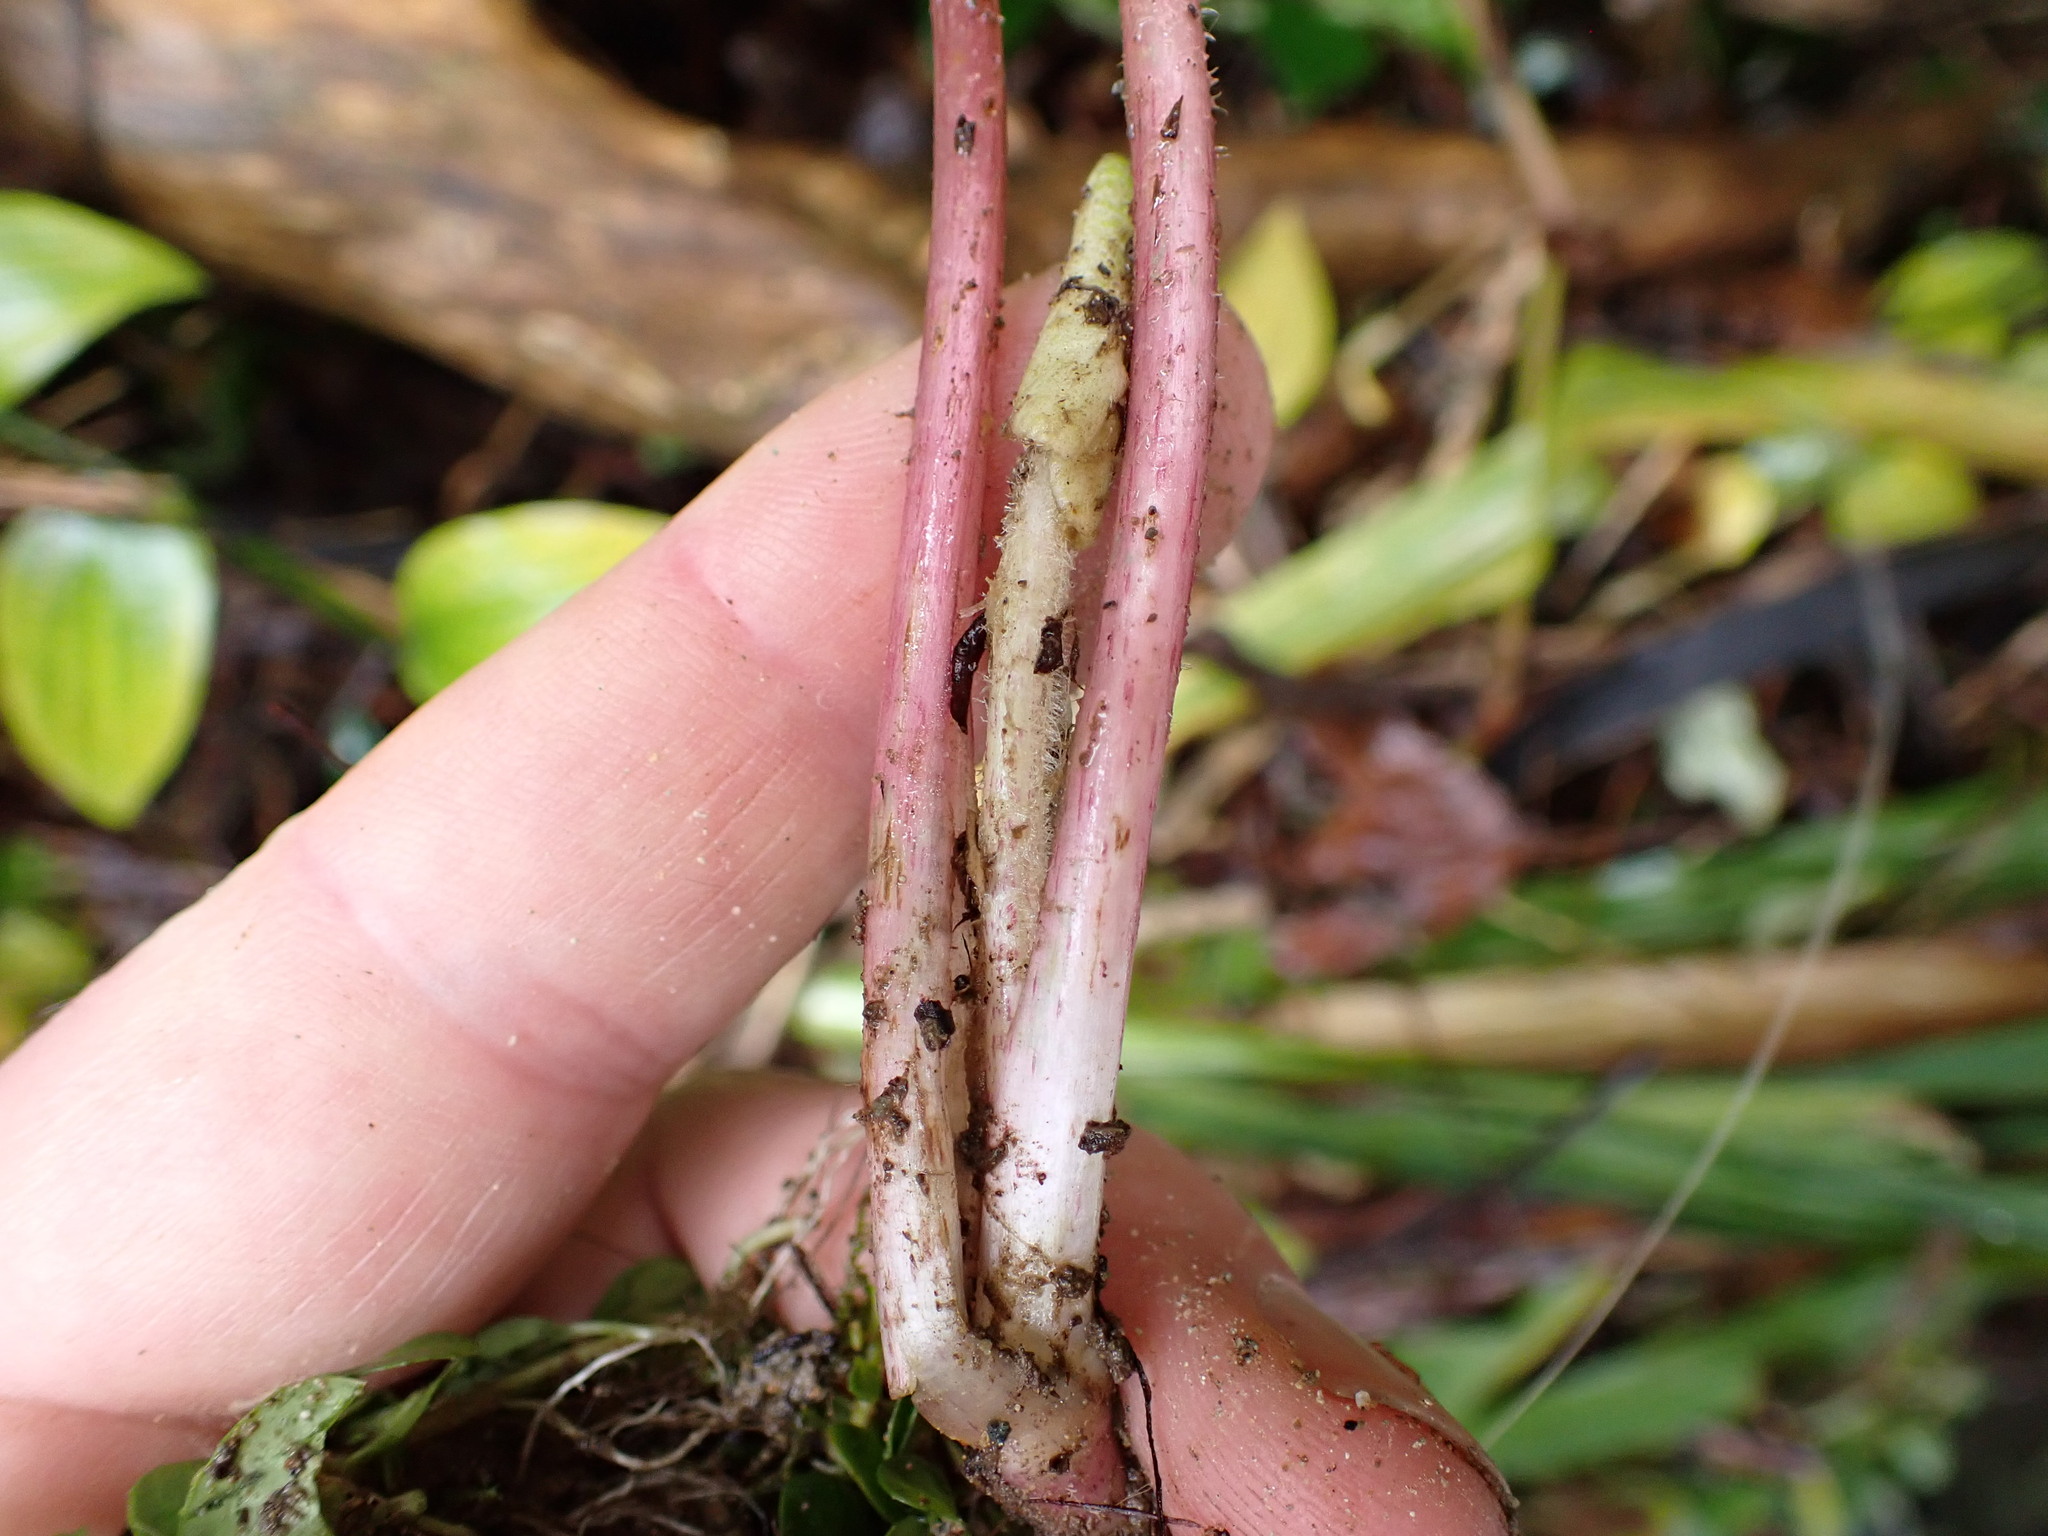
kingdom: Plantae
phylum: Tracheophyta
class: Magnoliopsida
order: Asterales
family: Asteraceae
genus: Petasites
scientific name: Petasites pyrenaicus
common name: Winter heliotrope
